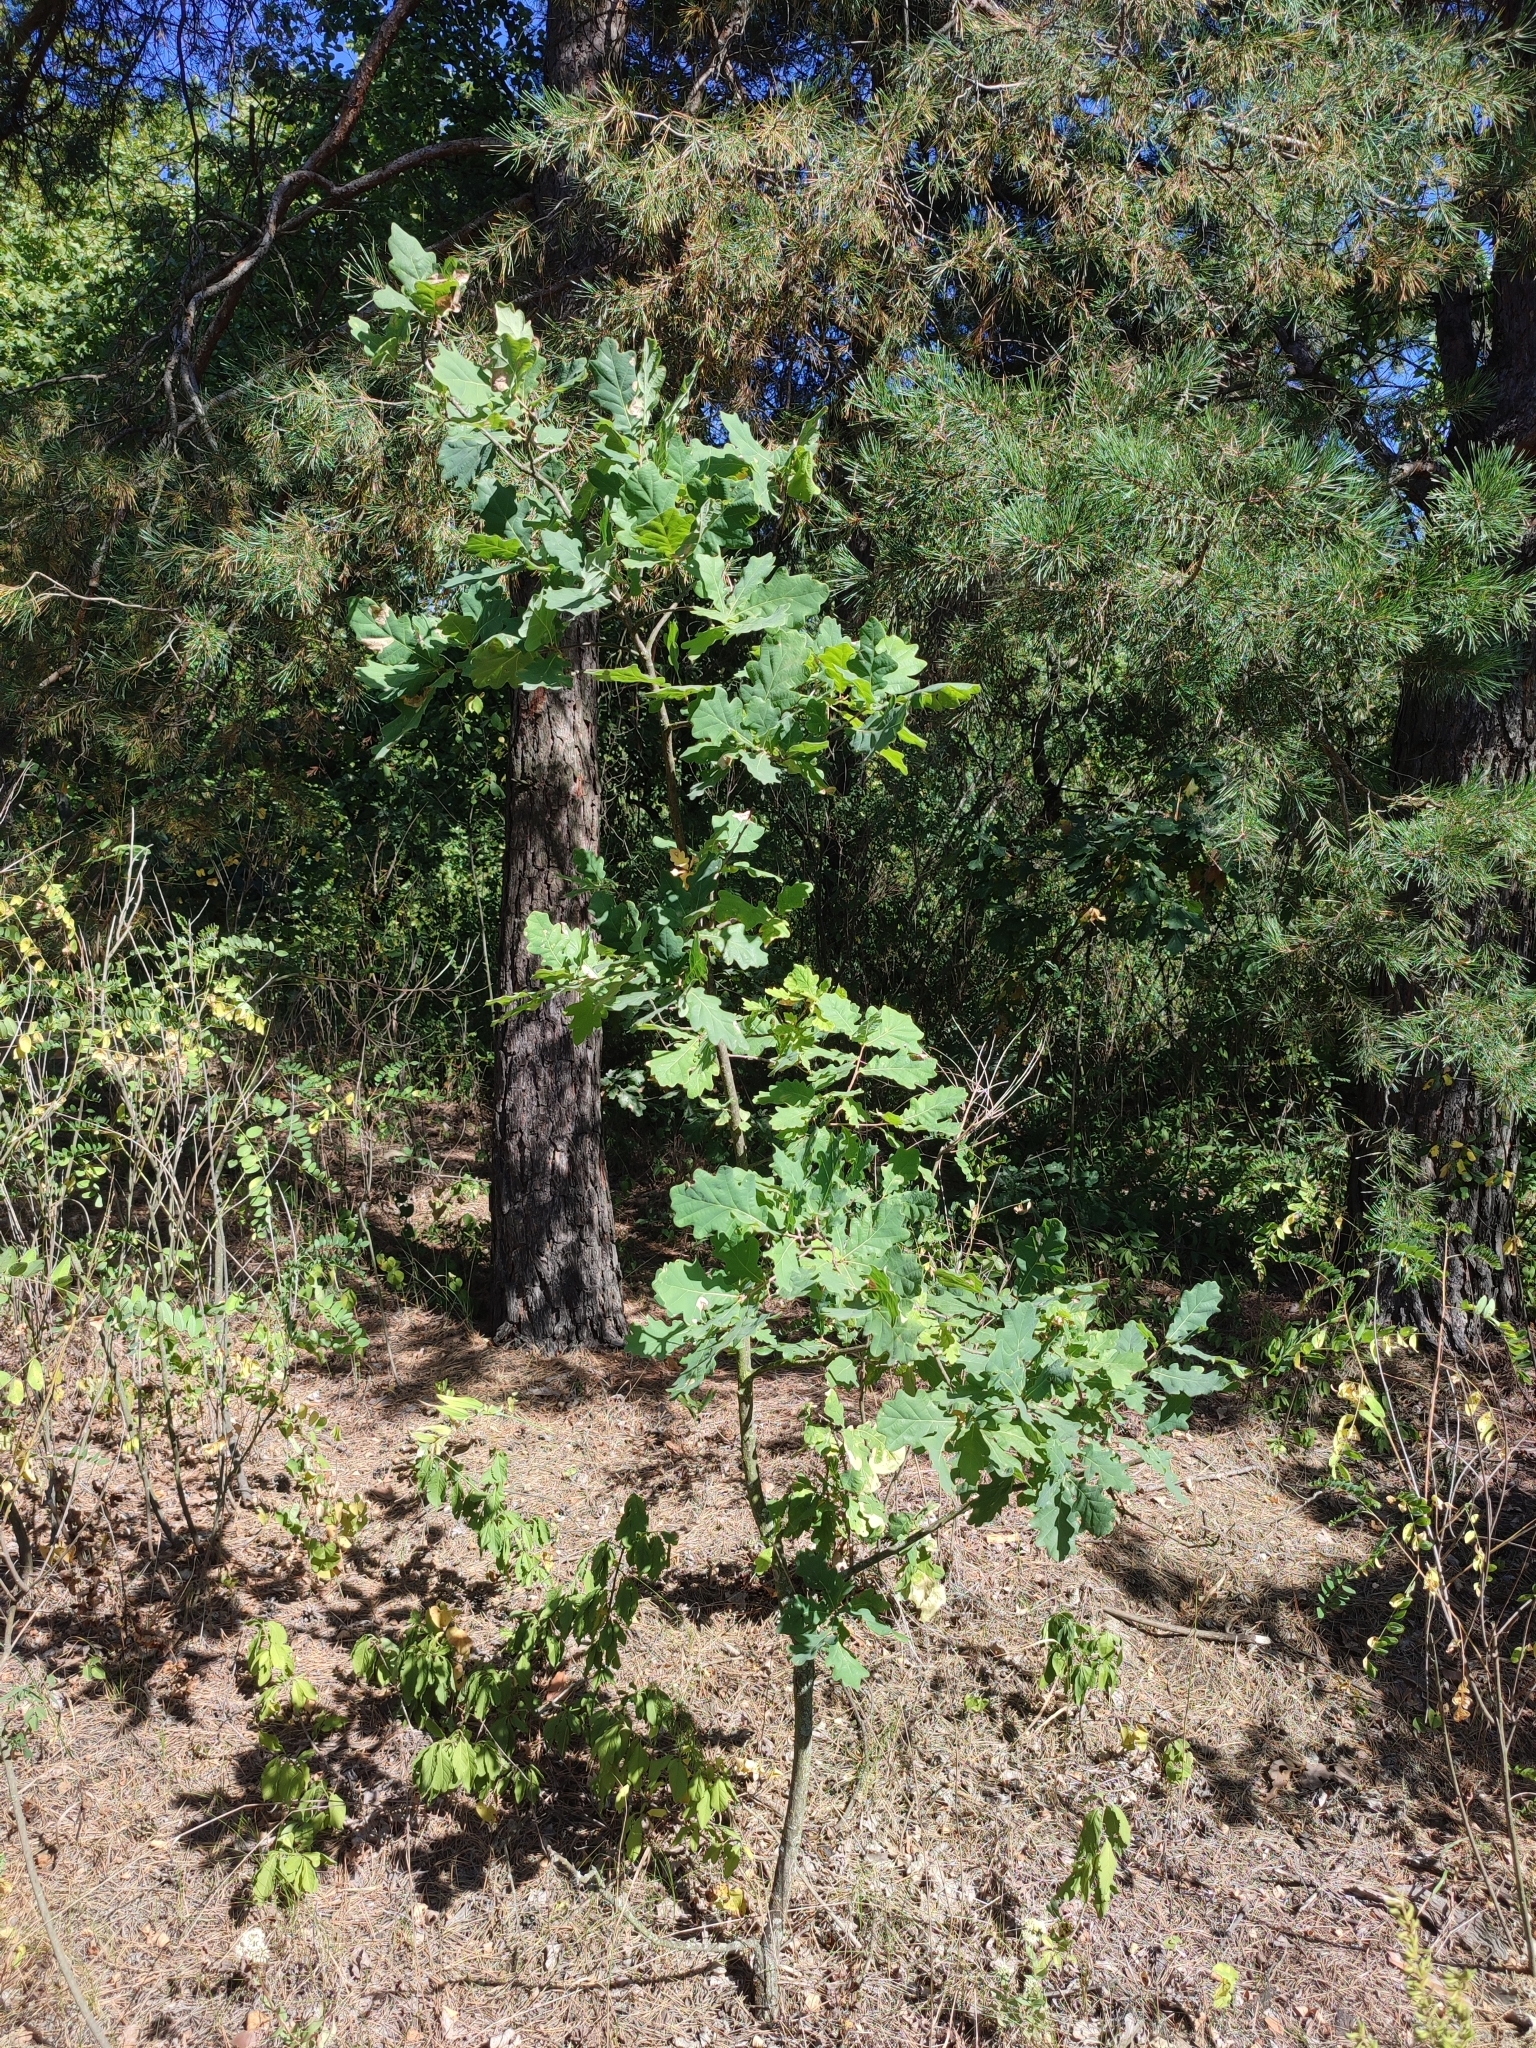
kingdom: Plantae
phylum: Tracheophyta
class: Magnoliopsida
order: Fagales
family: Fagaceae
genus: Quercus
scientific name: Quercus robur
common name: Pedunculate oak
